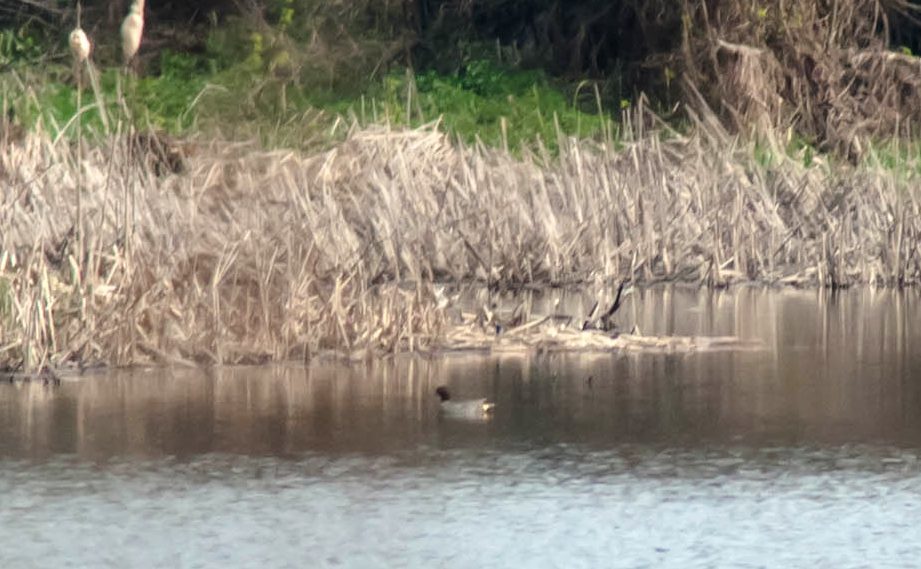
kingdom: Animalia
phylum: Chordata
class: Aves
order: Anseriformes
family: Anatidae
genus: Anas
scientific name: Anas crecca
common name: Eurasian teal
